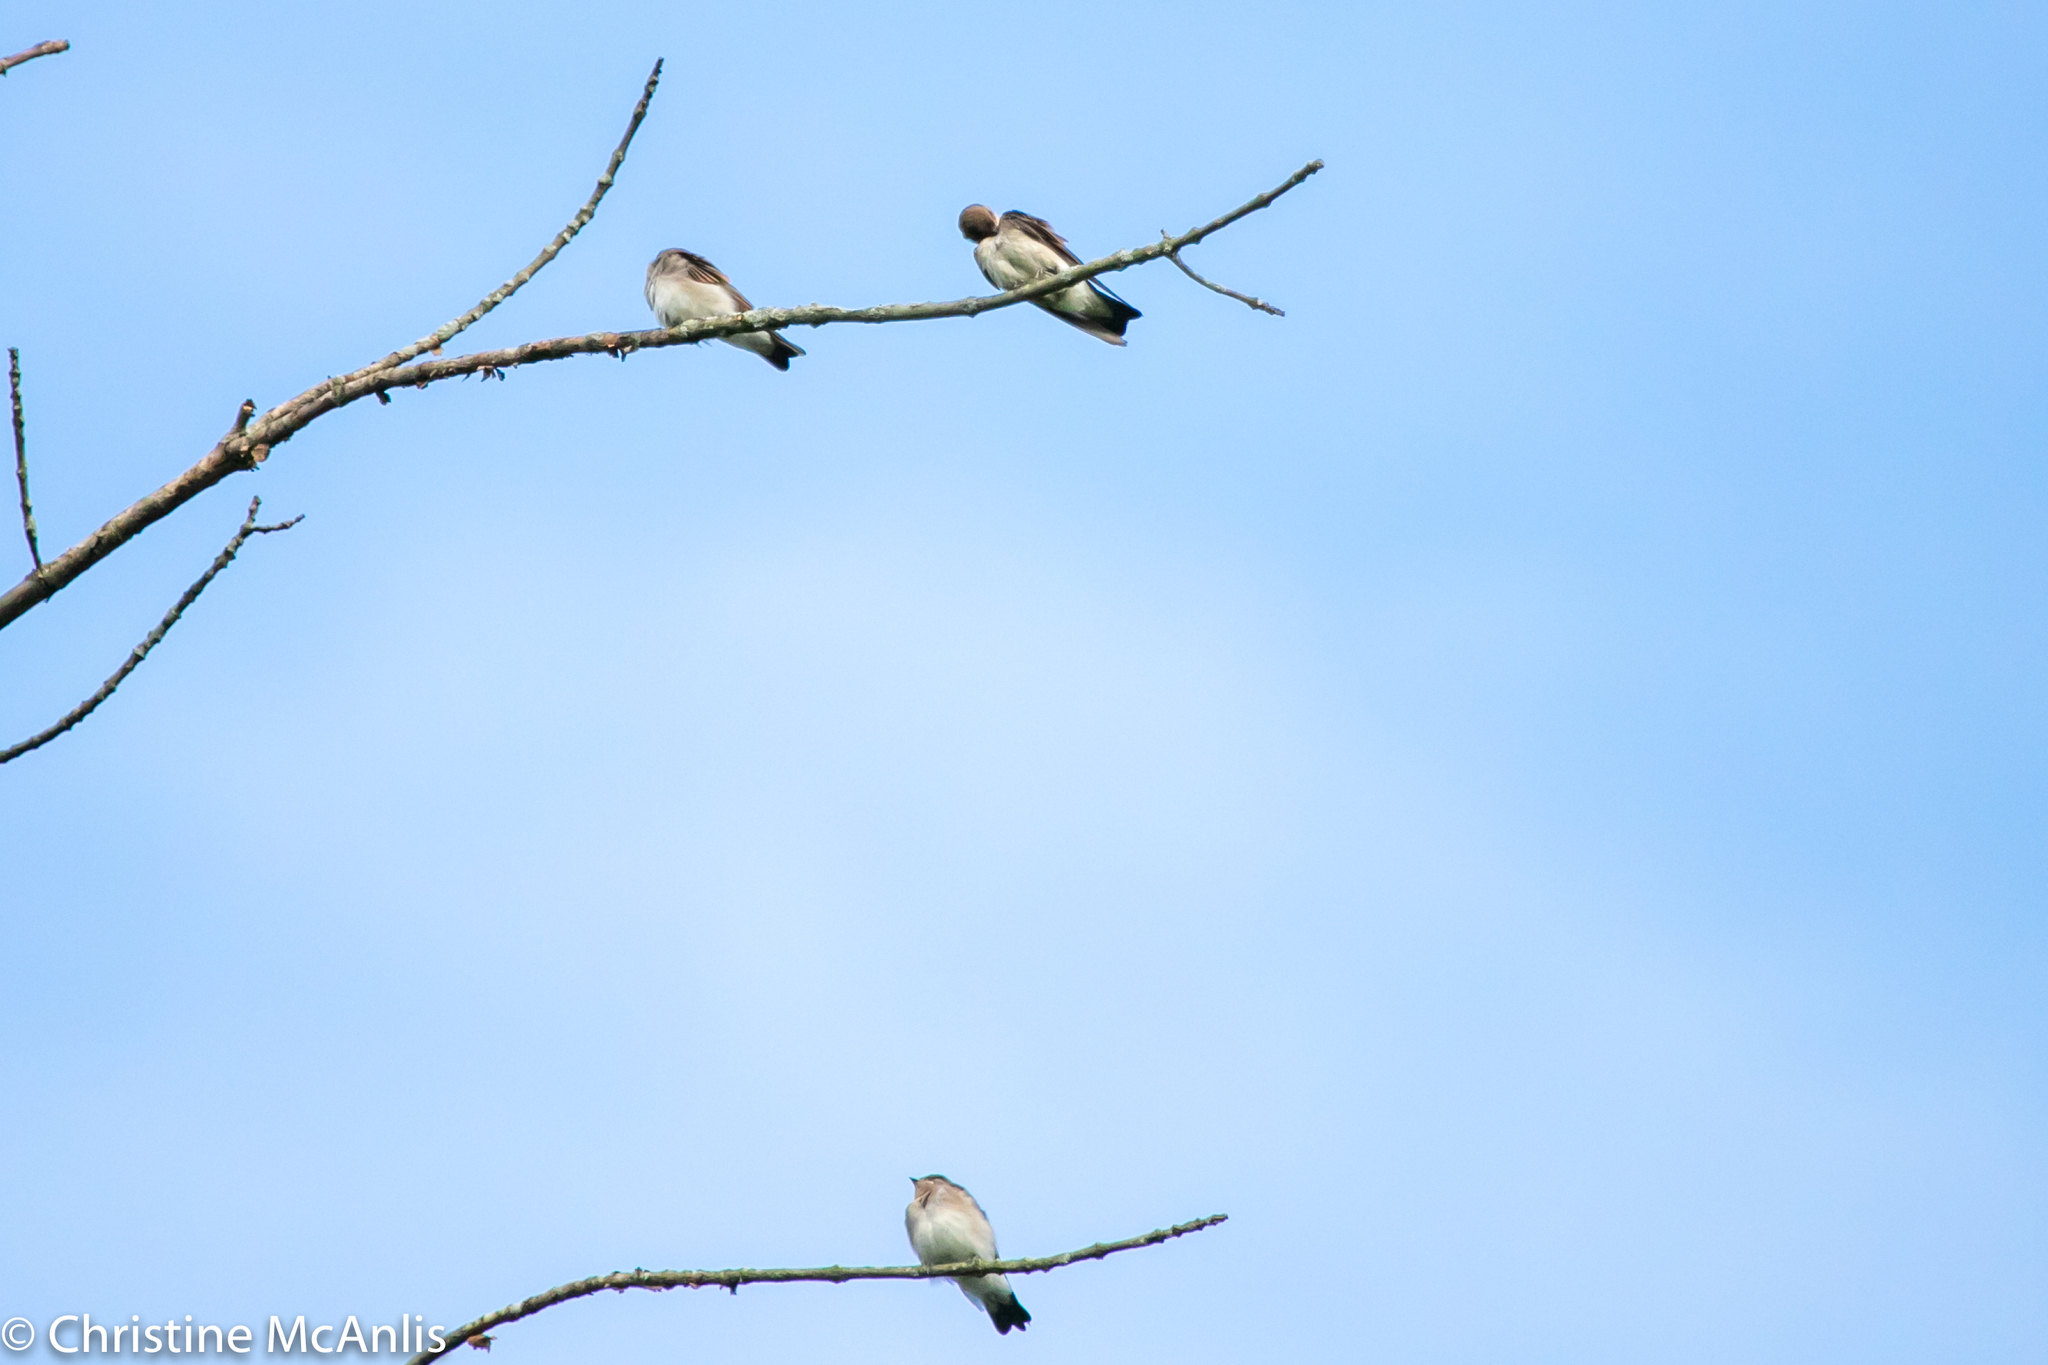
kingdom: Animalia
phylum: Chordata
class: Aves
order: Passeriformes
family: Hirundinidae
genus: Stelgidopteryx
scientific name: Stelgidopteryx serripennis
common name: Northern rough-winged swallow
